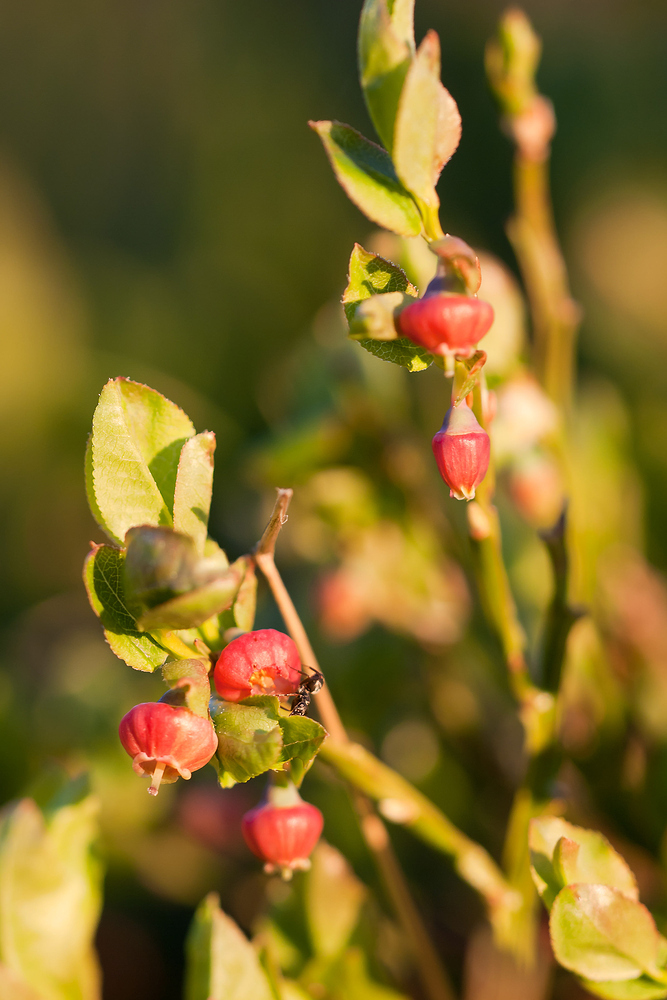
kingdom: Plantae
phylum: Tracheophyta
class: Magnoliopsida
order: Ericales
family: Ericaceae
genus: Vaccinium
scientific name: Vaccinium myrtillus
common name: Bilberry
